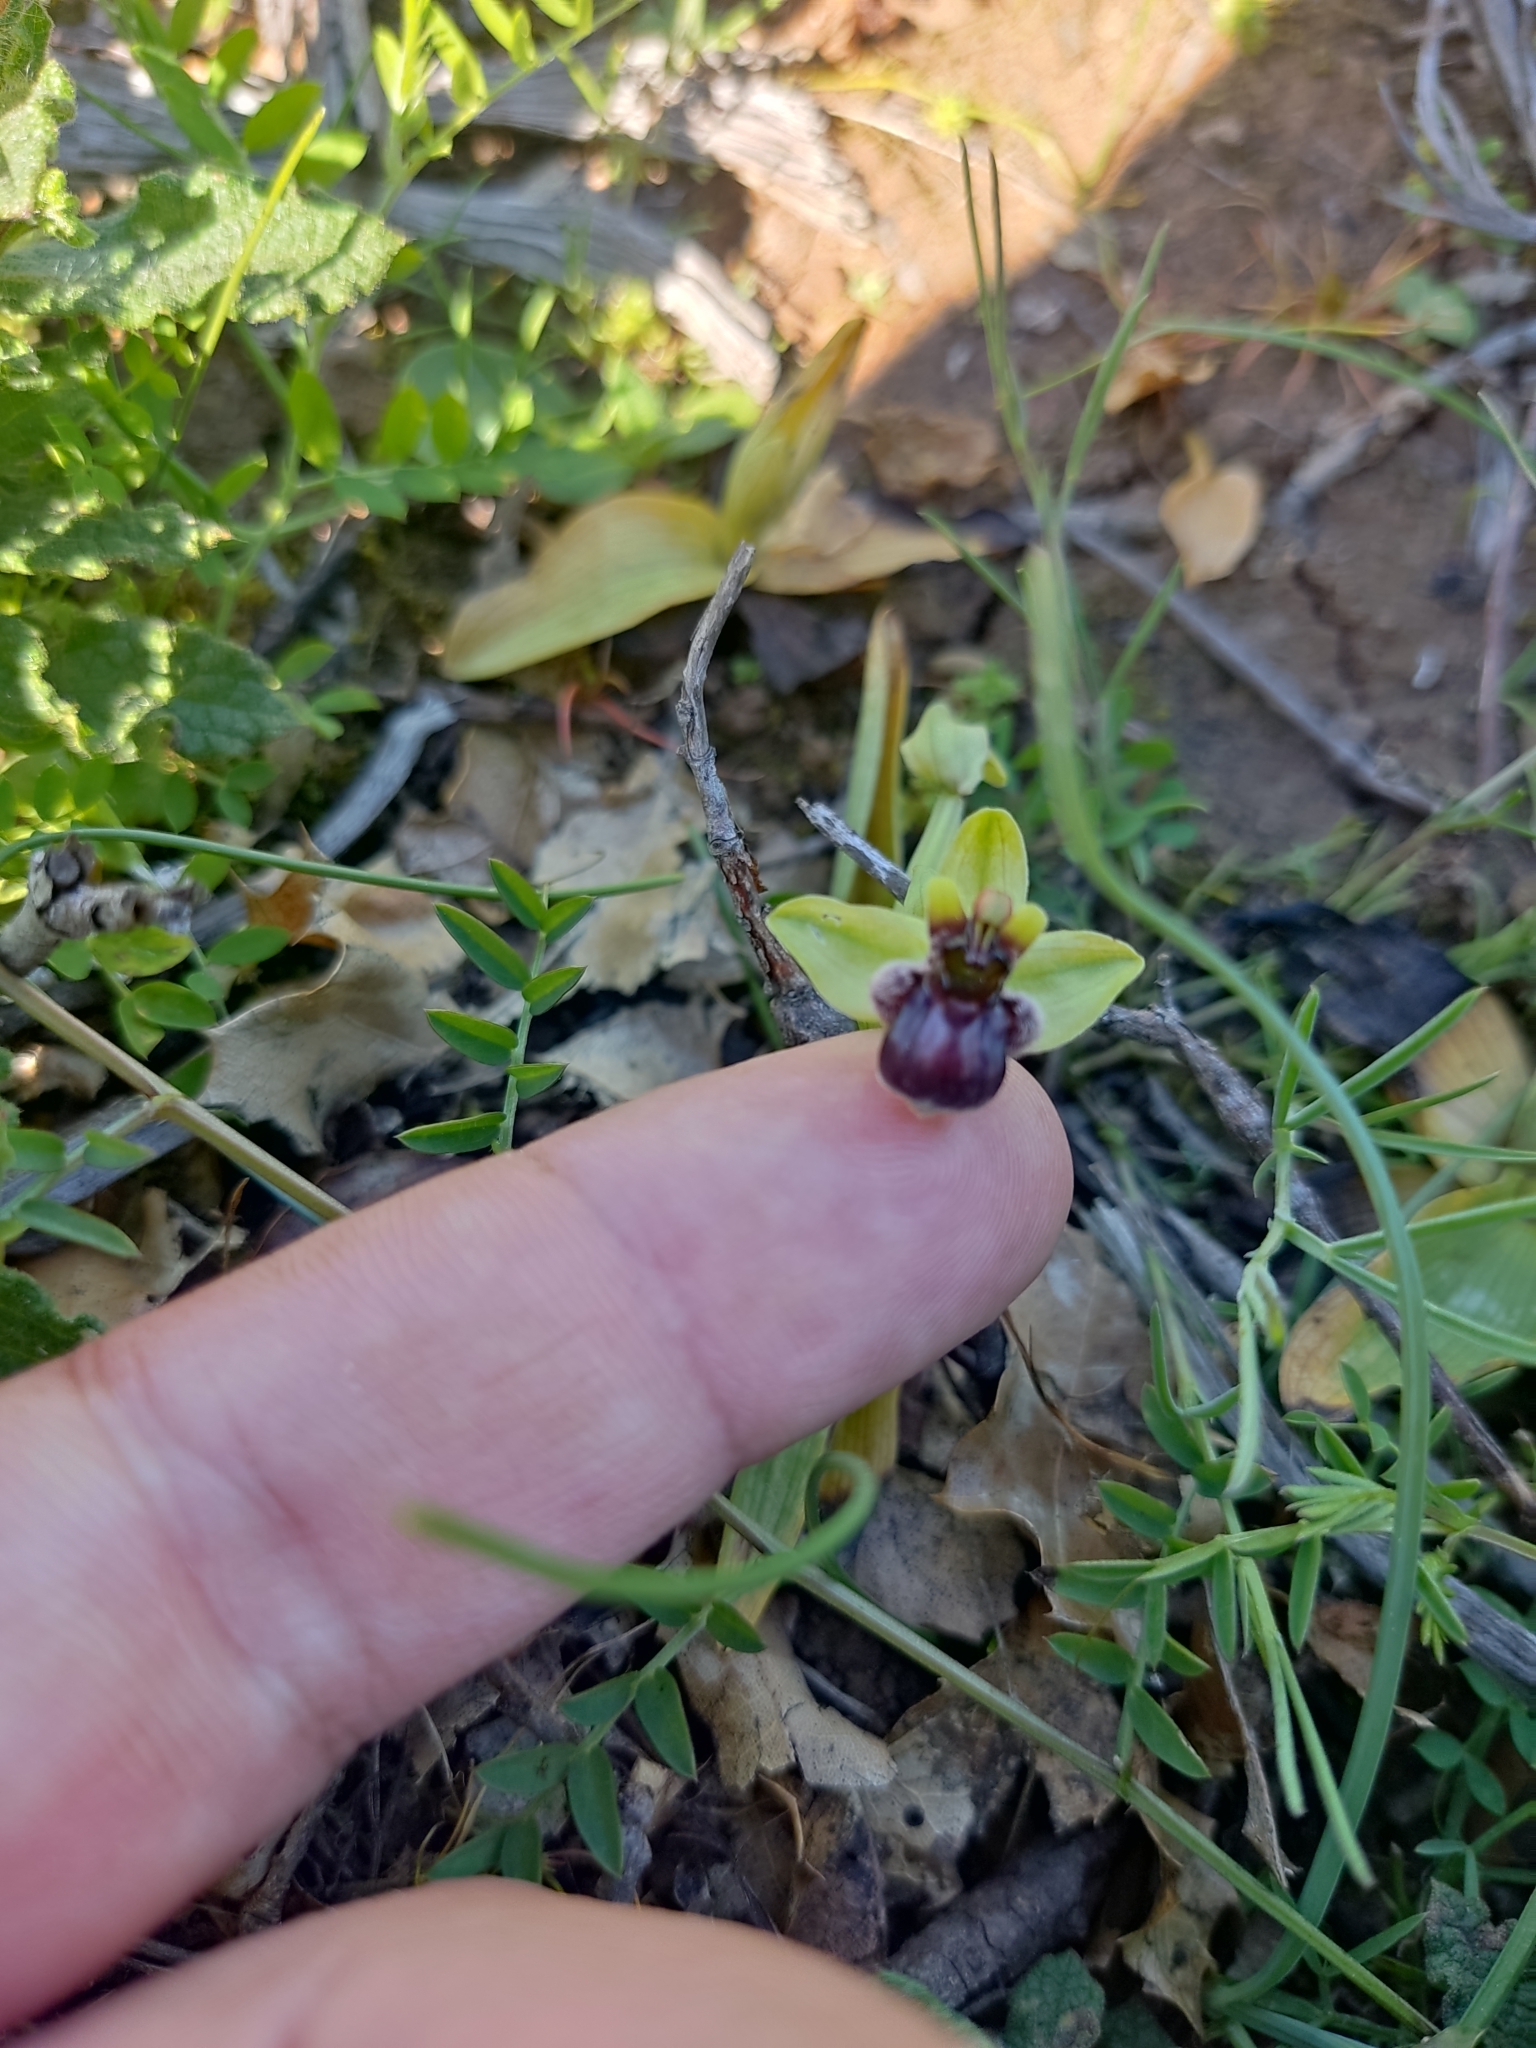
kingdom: Plantae
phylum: Tracheophyta
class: Liliopsida
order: Asparagales
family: Orchidaceae
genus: Ophrys
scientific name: Ophrys bombyliflora
